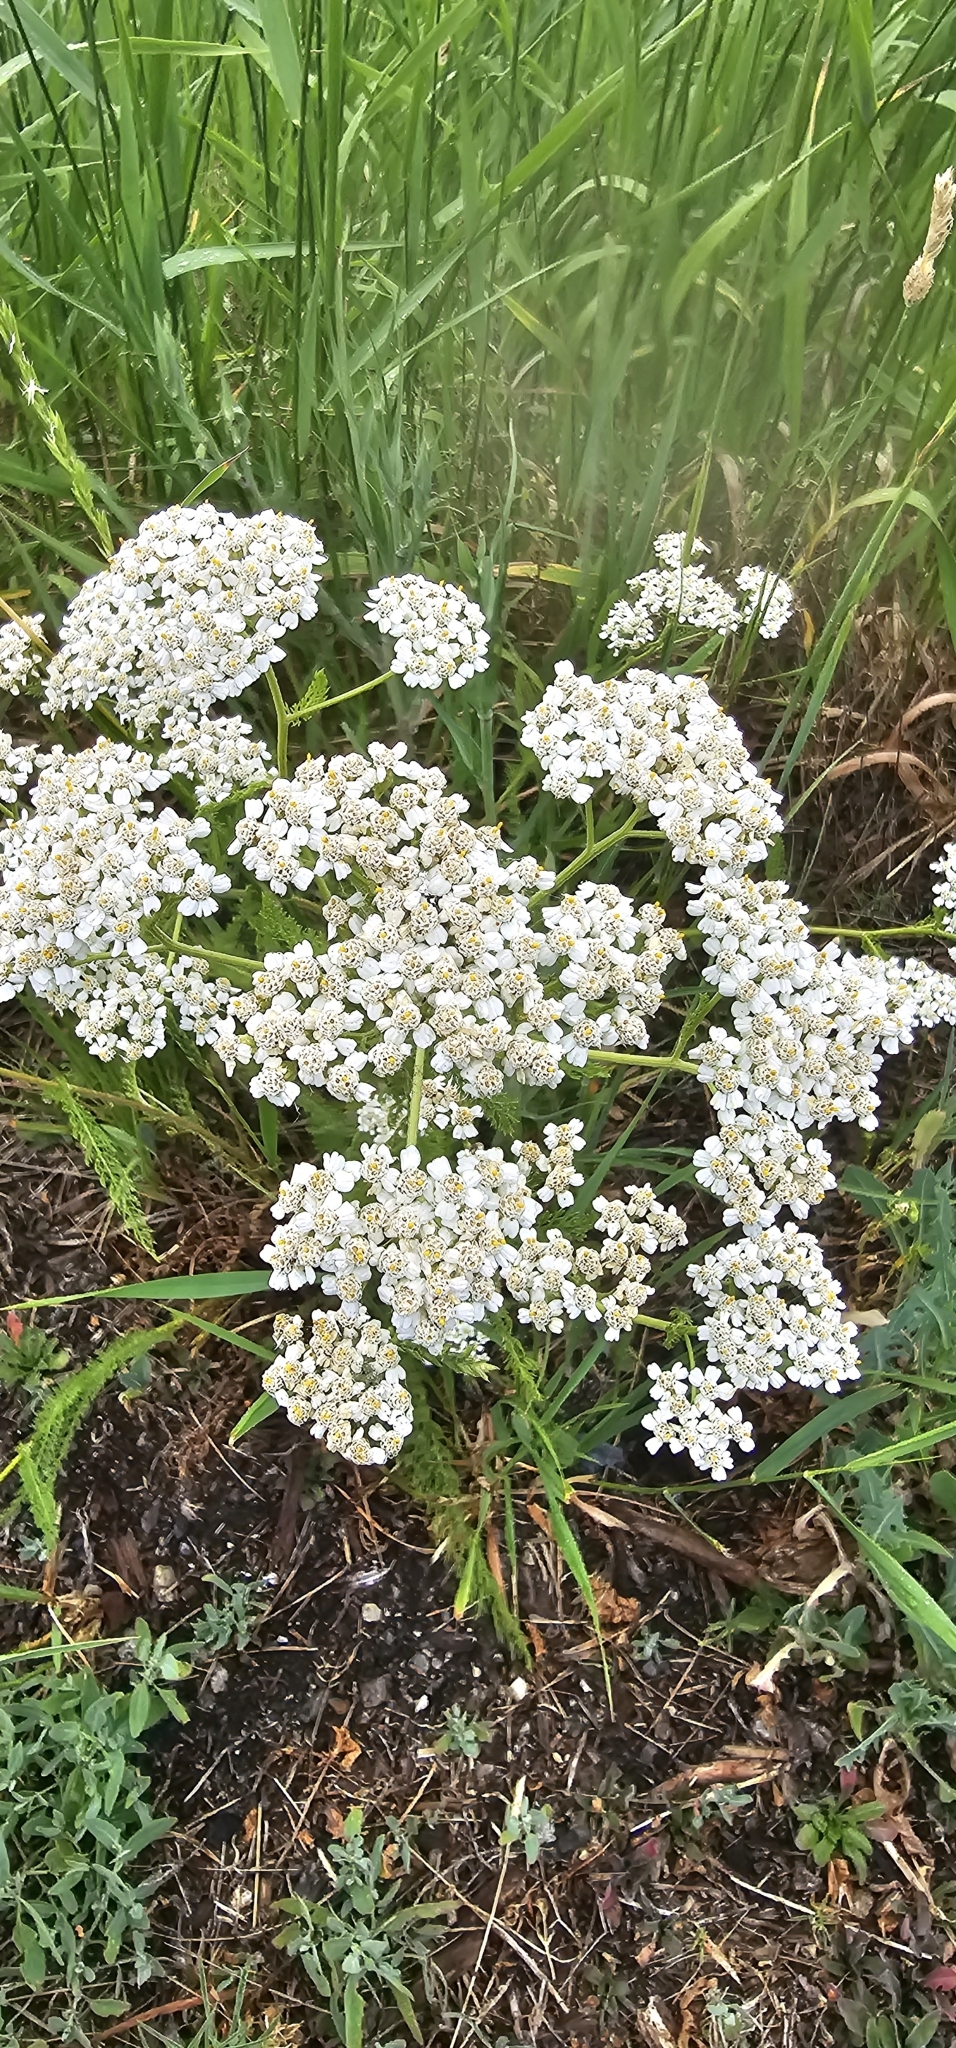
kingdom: Plantae
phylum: Tracheophyta
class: Magnoliopsida
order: Asterales
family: Asteraceae
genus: Achillea
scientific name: Achillea millefolium
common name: Yarrow
